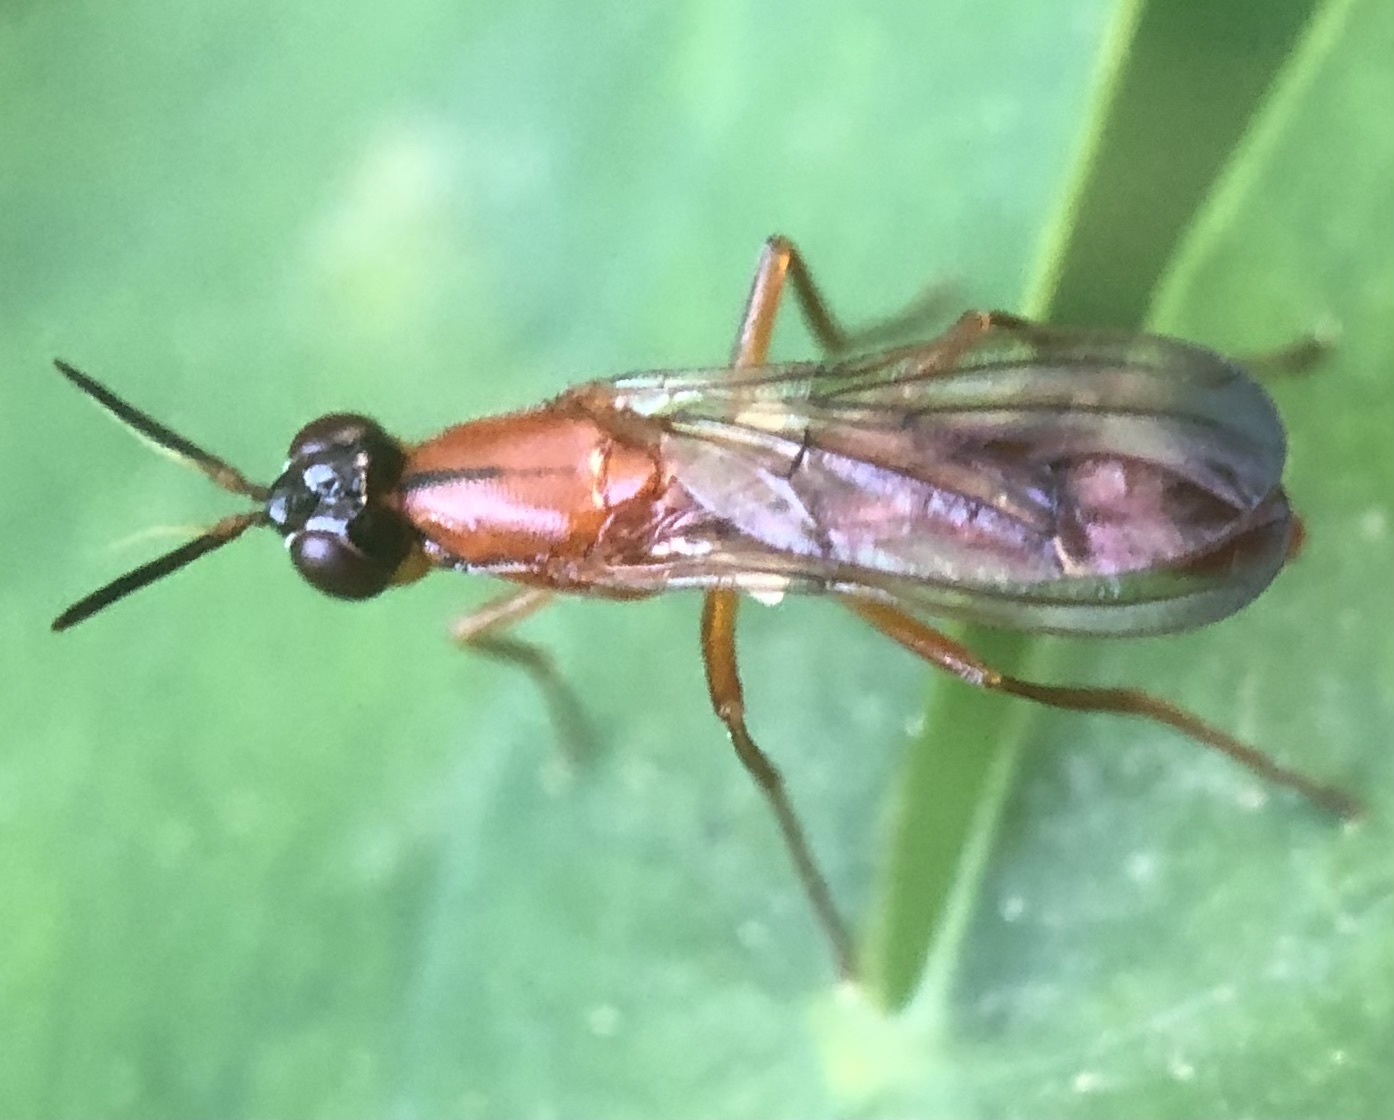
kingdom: Animalia
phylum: Arthropoda
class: Insecta
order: Diptera
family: Psilidae
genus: Loxocera
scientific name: Loxocera cylindrica
